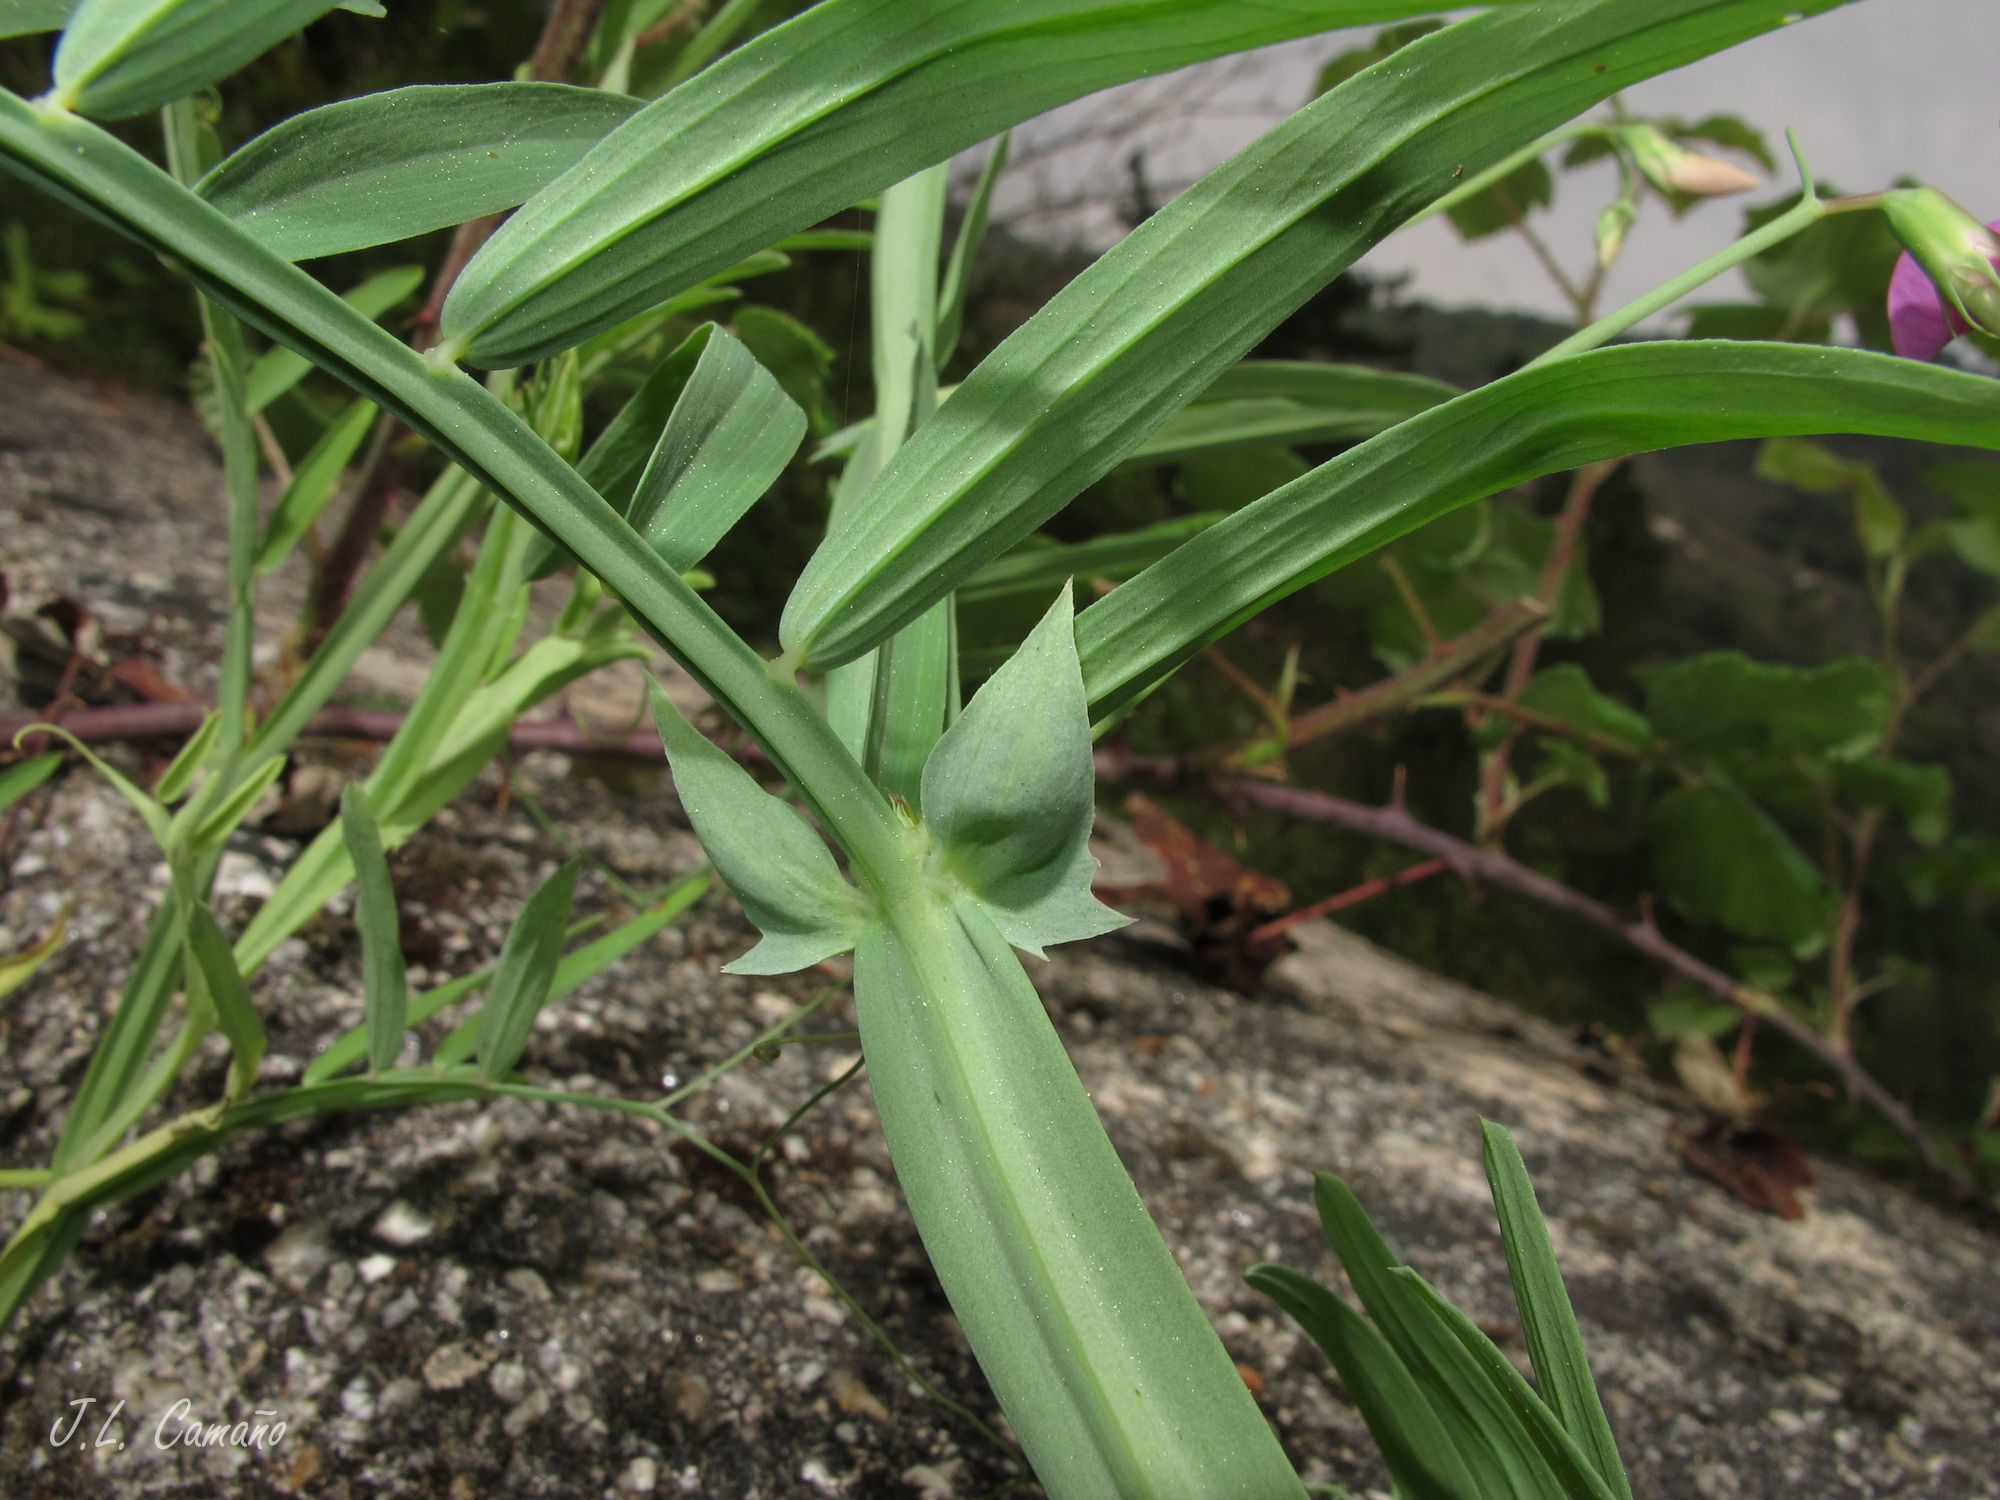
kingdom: Plantae
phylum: Tracheophyta
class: Magnoliopsida
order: Fabales
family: Fabaceae
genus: Lathyrus
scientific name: Lathyrus clymenum
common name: Spanish vetchling
